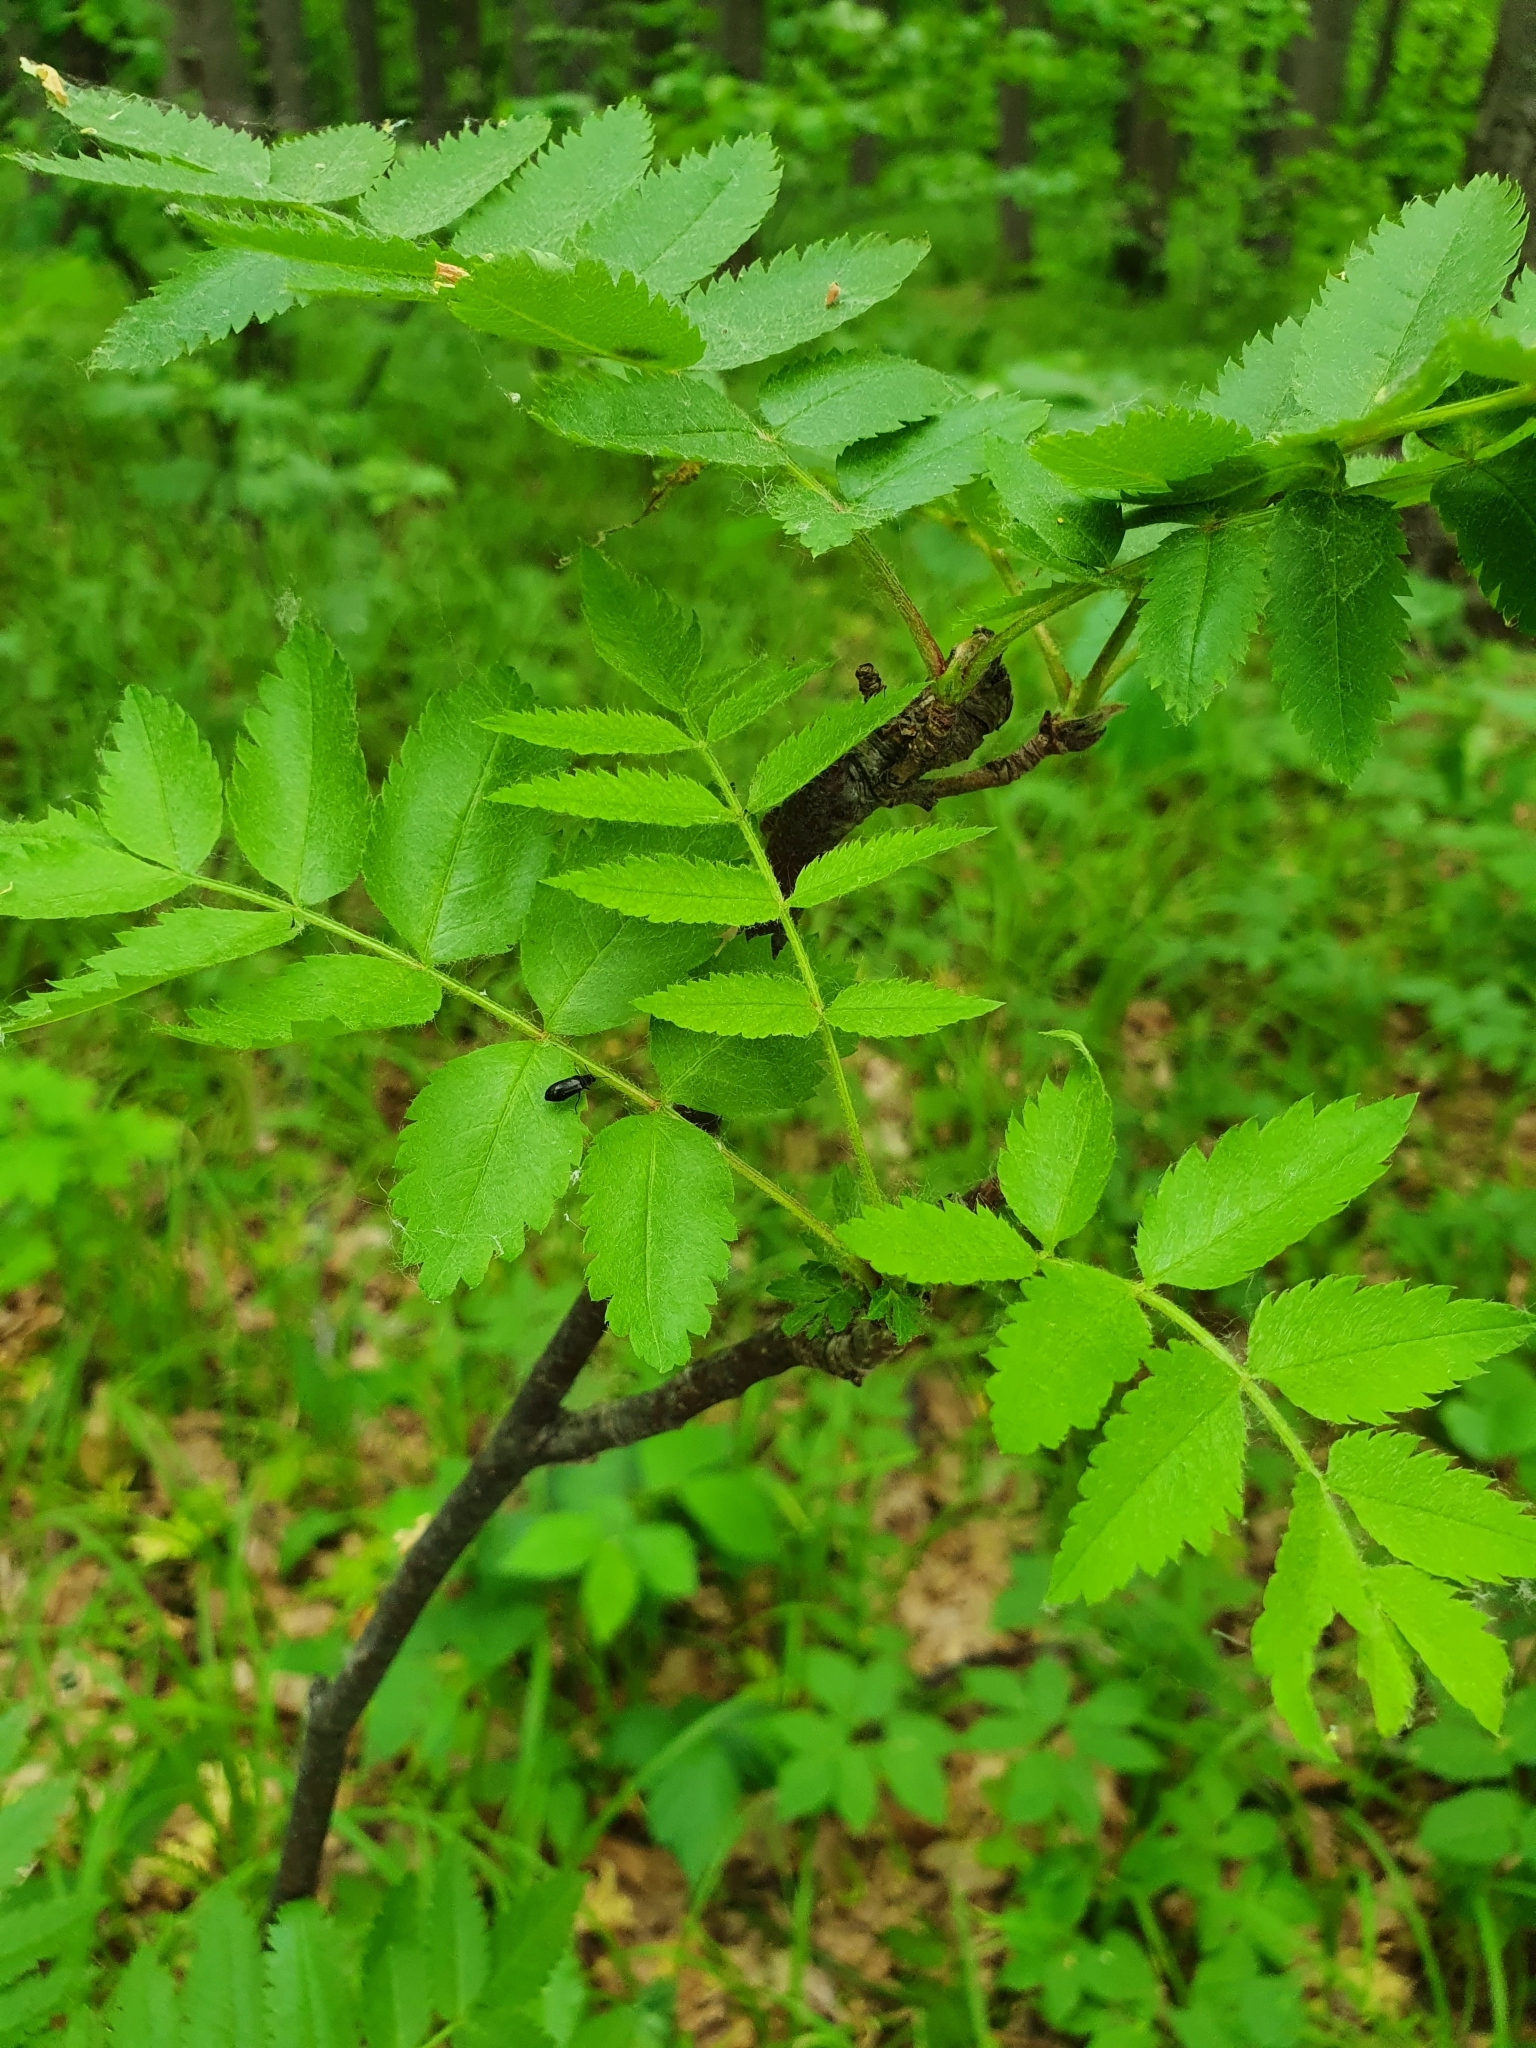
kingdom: Plantae
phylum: Tracheophyta
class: Magnoliopsida
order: Rosales
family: Rosaceae
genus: Sorbus
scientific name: Sorbus aucuparia
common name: Rowan
